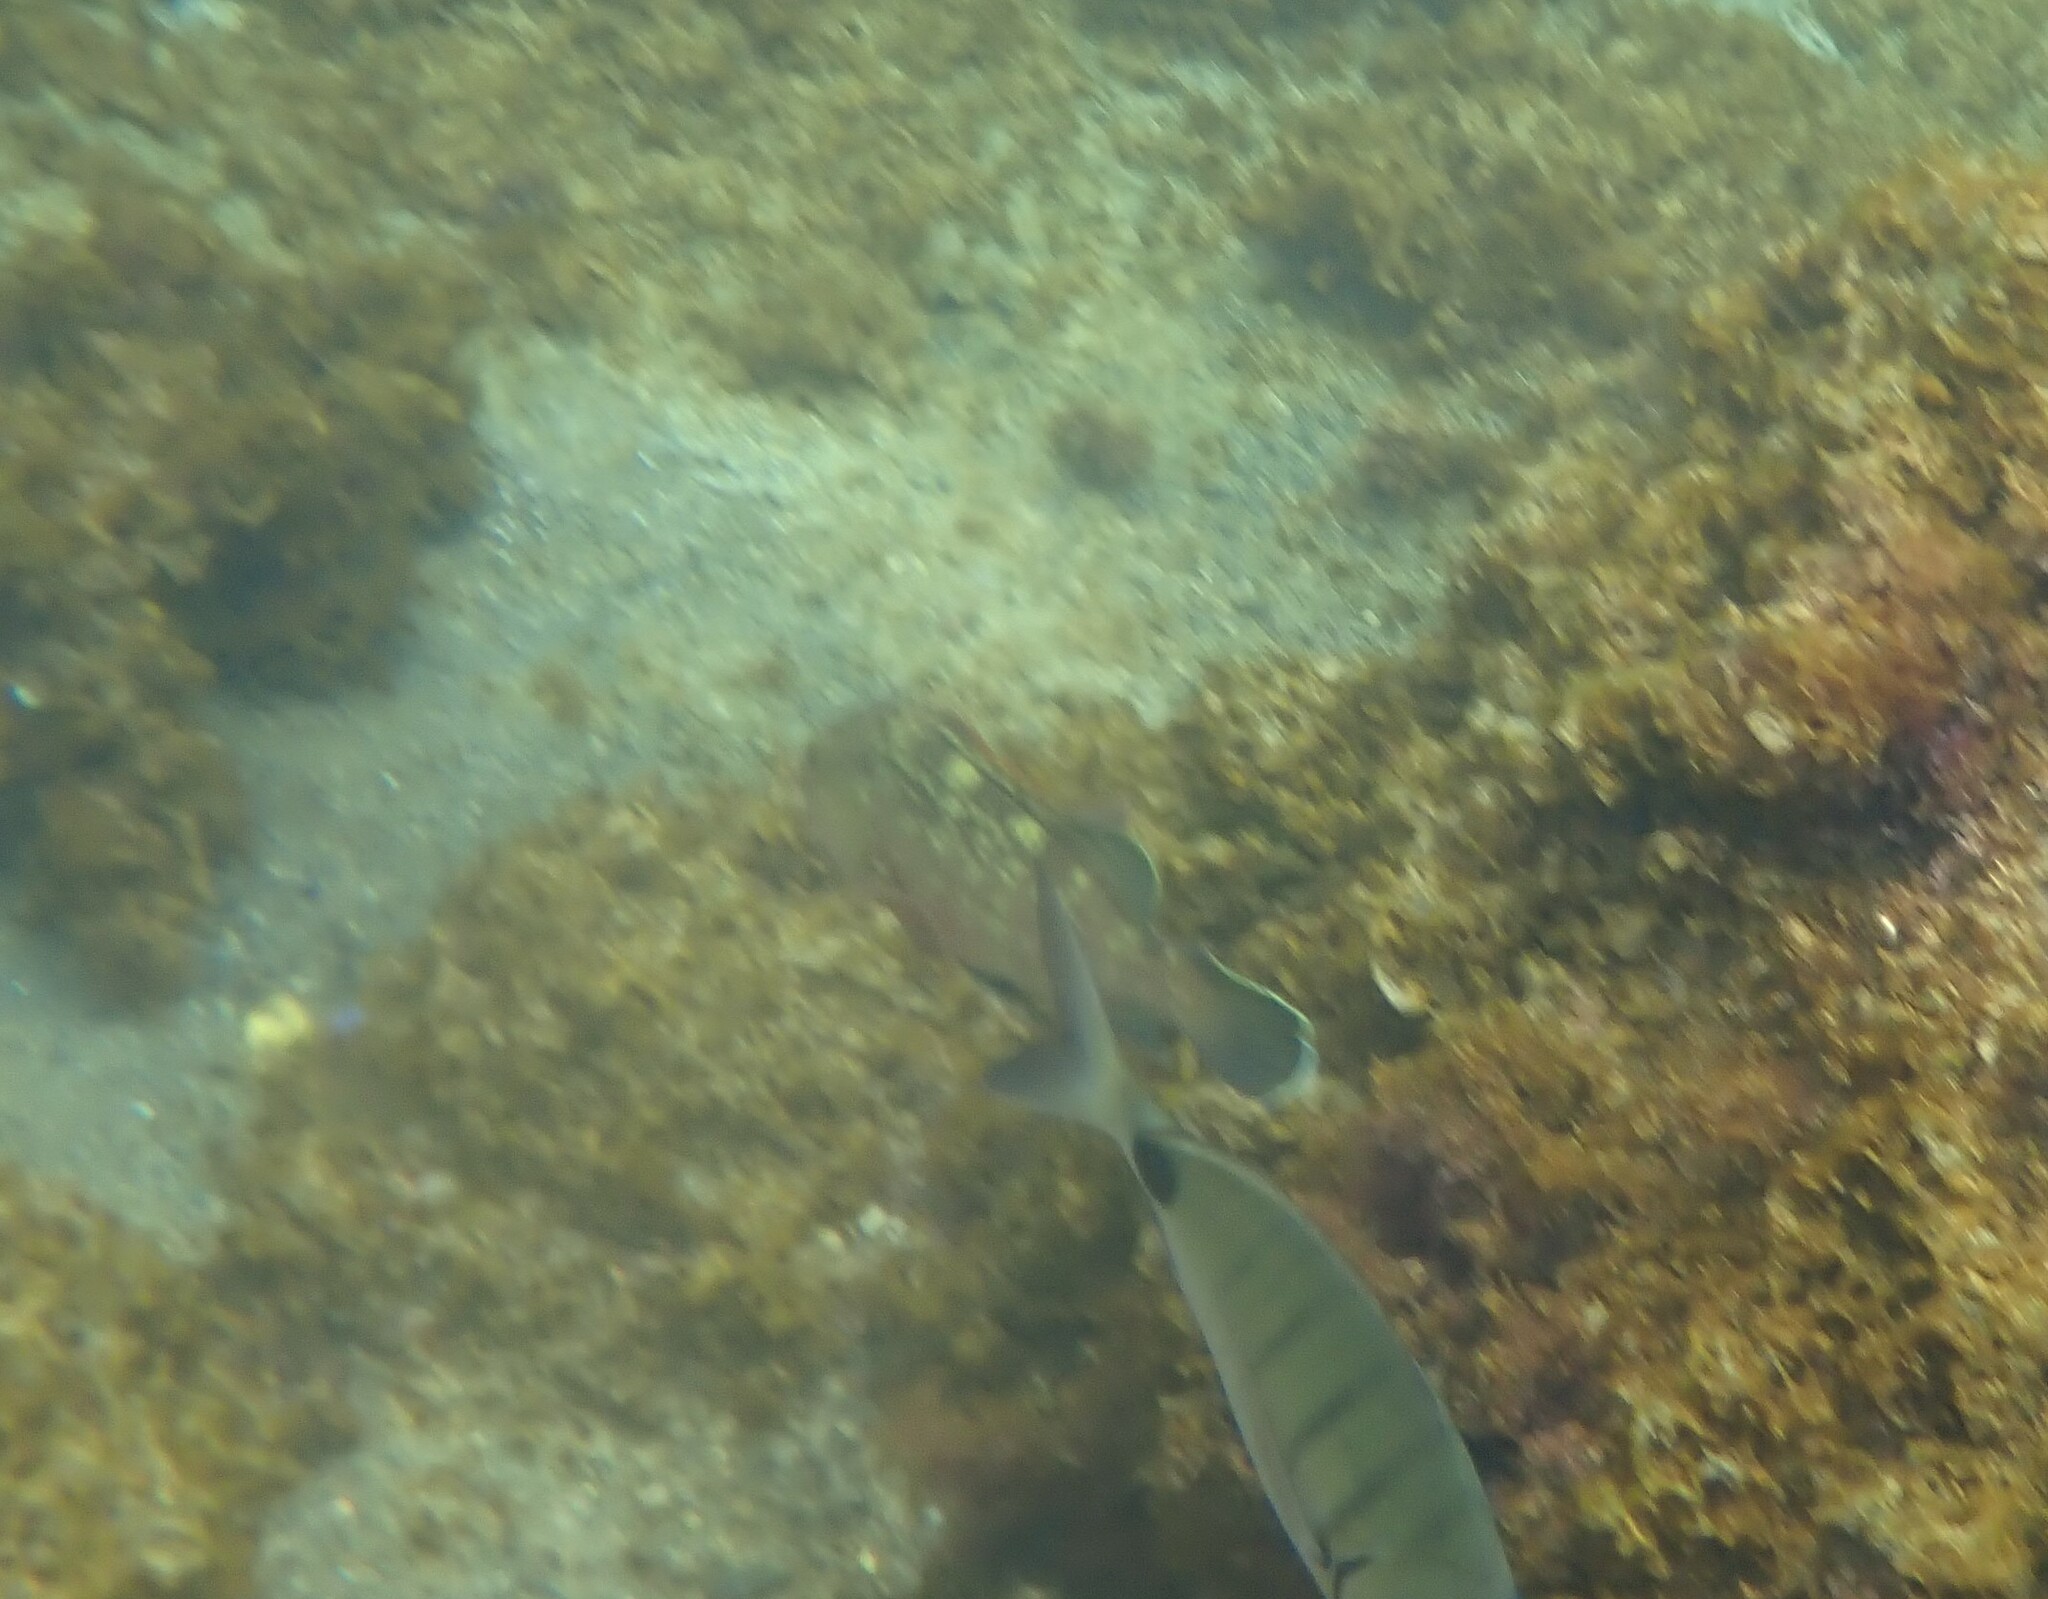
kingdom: Animalia
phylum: Chordata
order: Perciformes
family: Serranidae
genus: Epinephelus
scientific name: Epinephelus marginatus
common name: Dusky grouper
